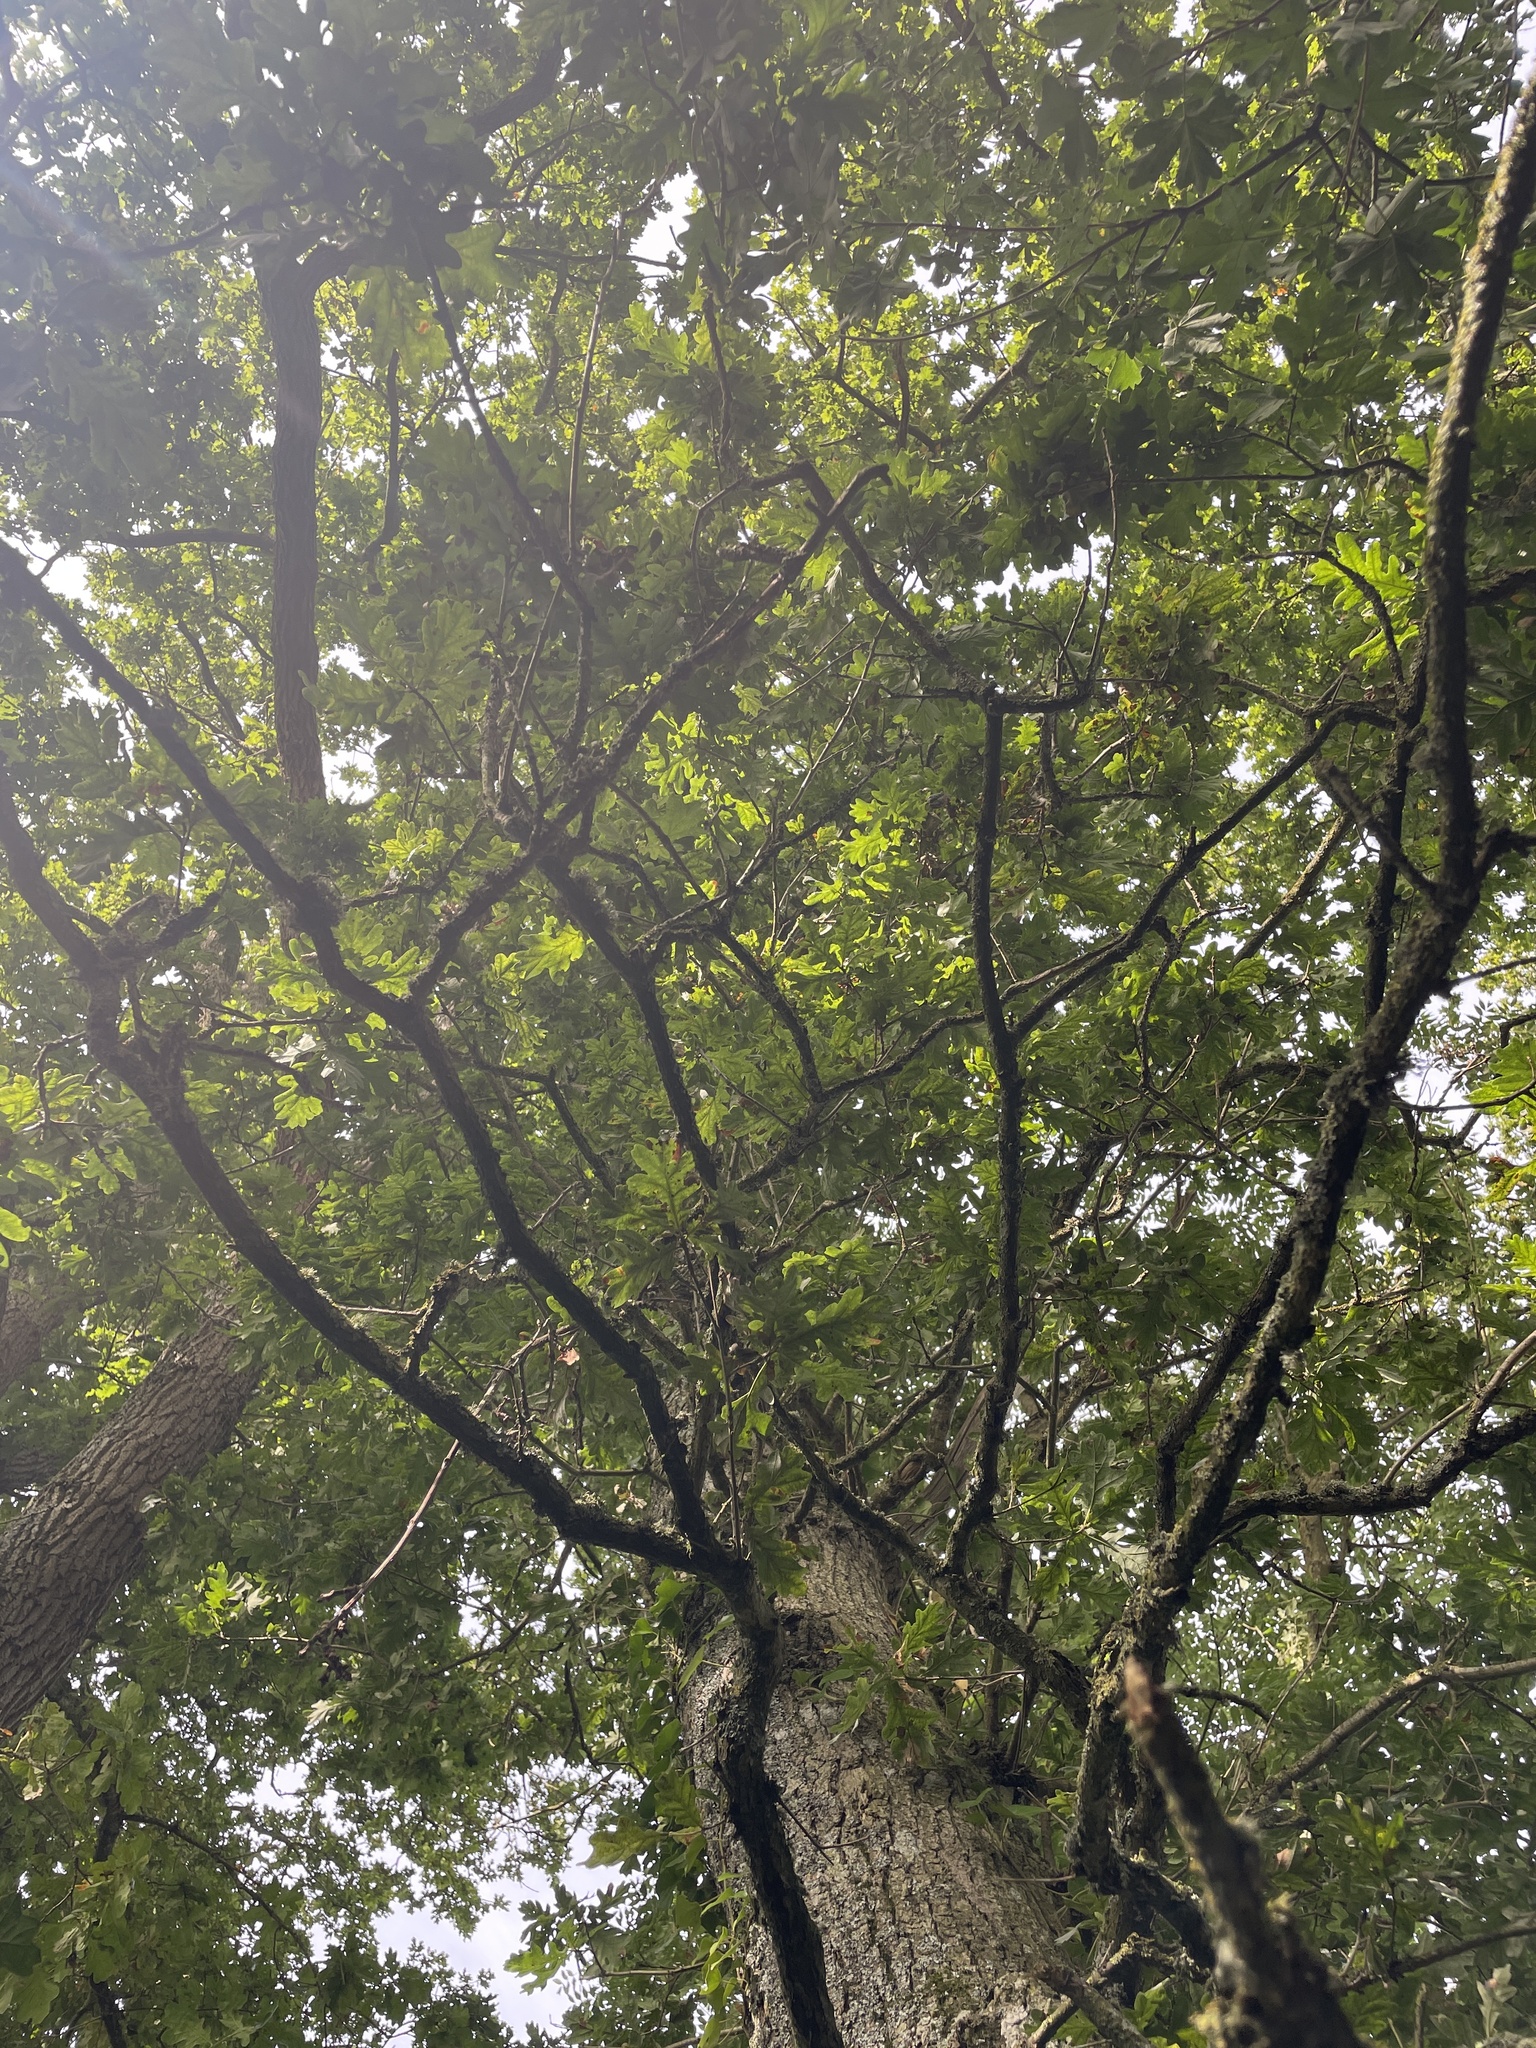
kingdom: Plantae
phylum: Tracheophyta
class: Magnoliopsida
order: Fagales
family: Fagaceae
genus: Quercus
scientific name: Quercus robur
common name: Pedunculate oak
